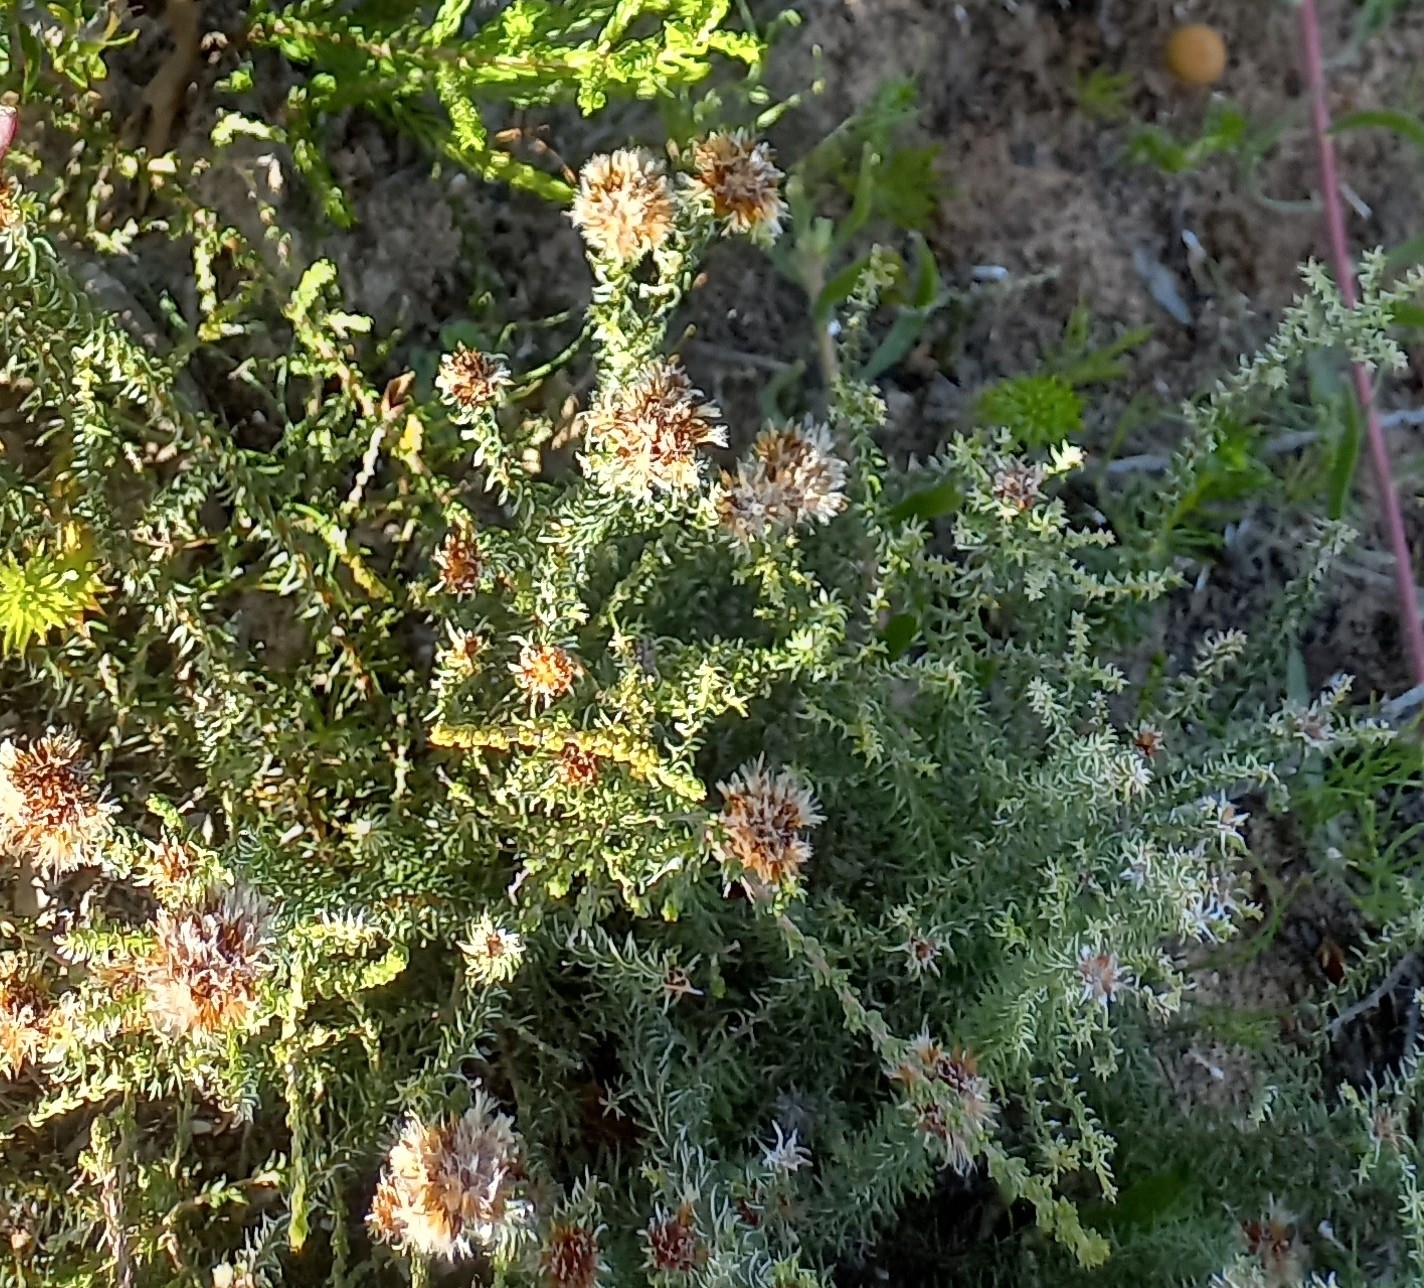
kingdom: Plantae
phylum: Tracheophyta
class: Magnoliopsida
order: Asterales
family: Asteraceae
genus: Stoebe
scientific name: Stoebe aethiopica
